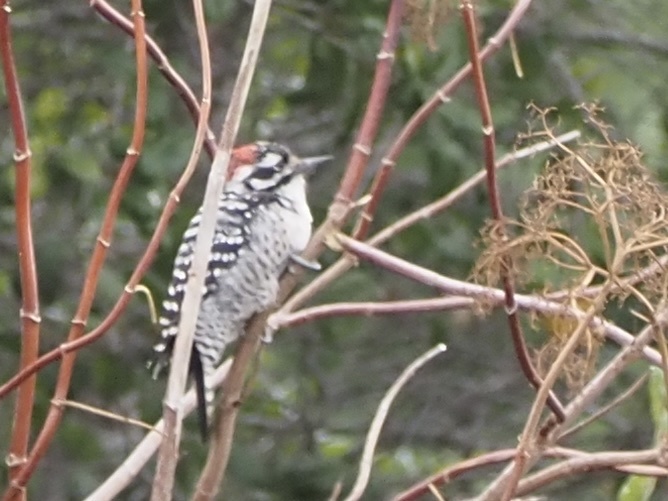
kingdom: Animalia
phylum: Chordata
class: Aves
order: Piciformes
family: Picidae
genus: Dryobates
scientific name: Dryobates nuttallii
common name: Nuttall's woodpecker
